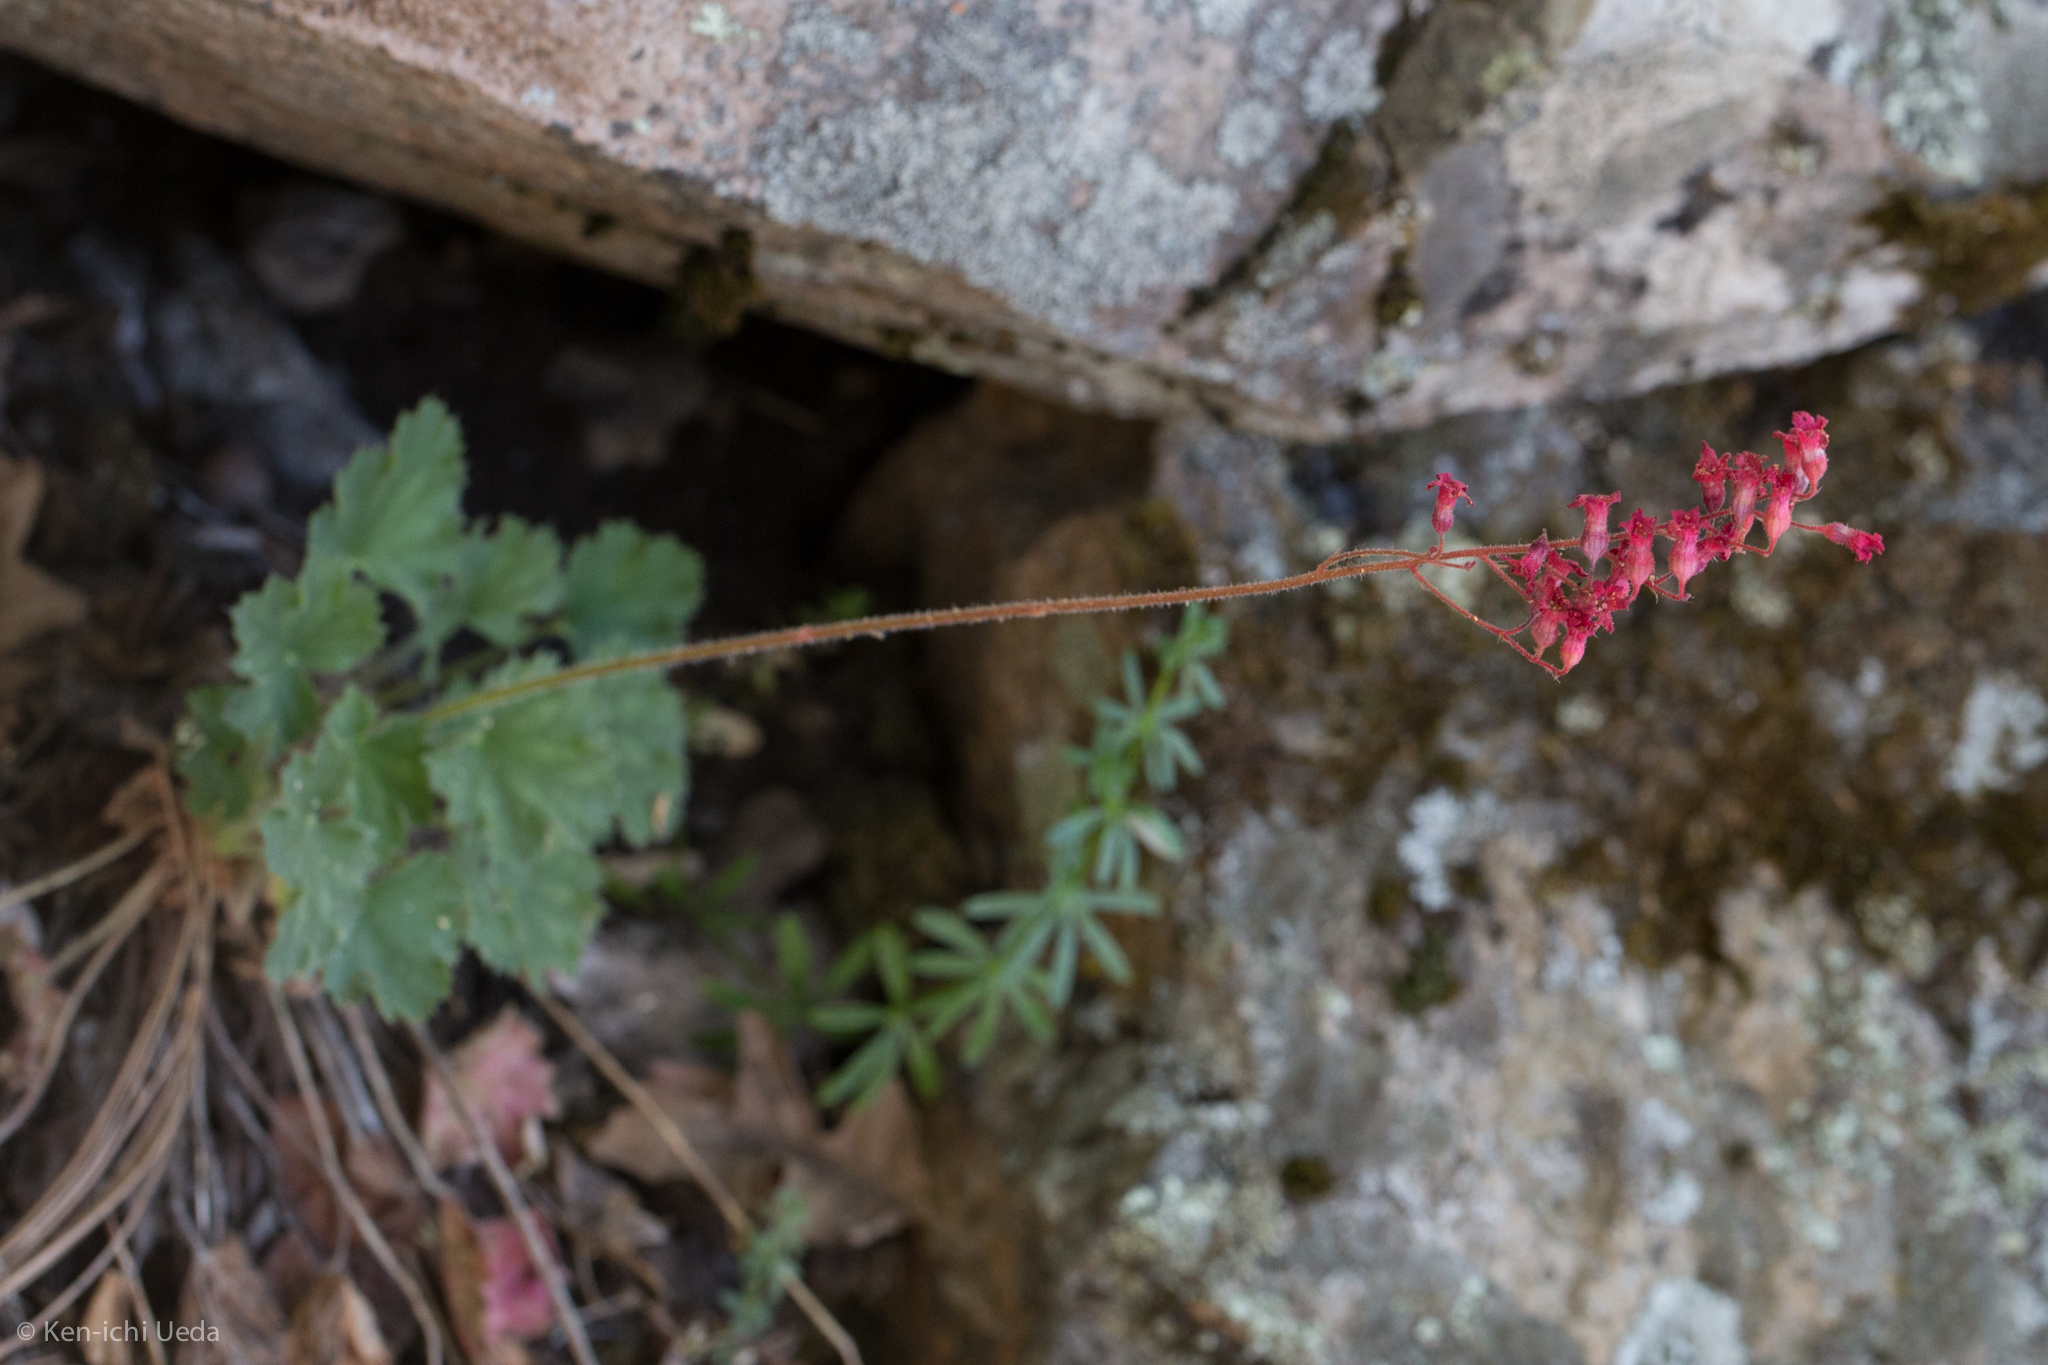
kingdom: Plantae
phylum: Tracheophyta
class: Magnoliopsida
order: Saxifragales
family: Saxifragaceae
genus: Heuchera
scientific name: Heuchera sanguinea
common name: Coralbells
